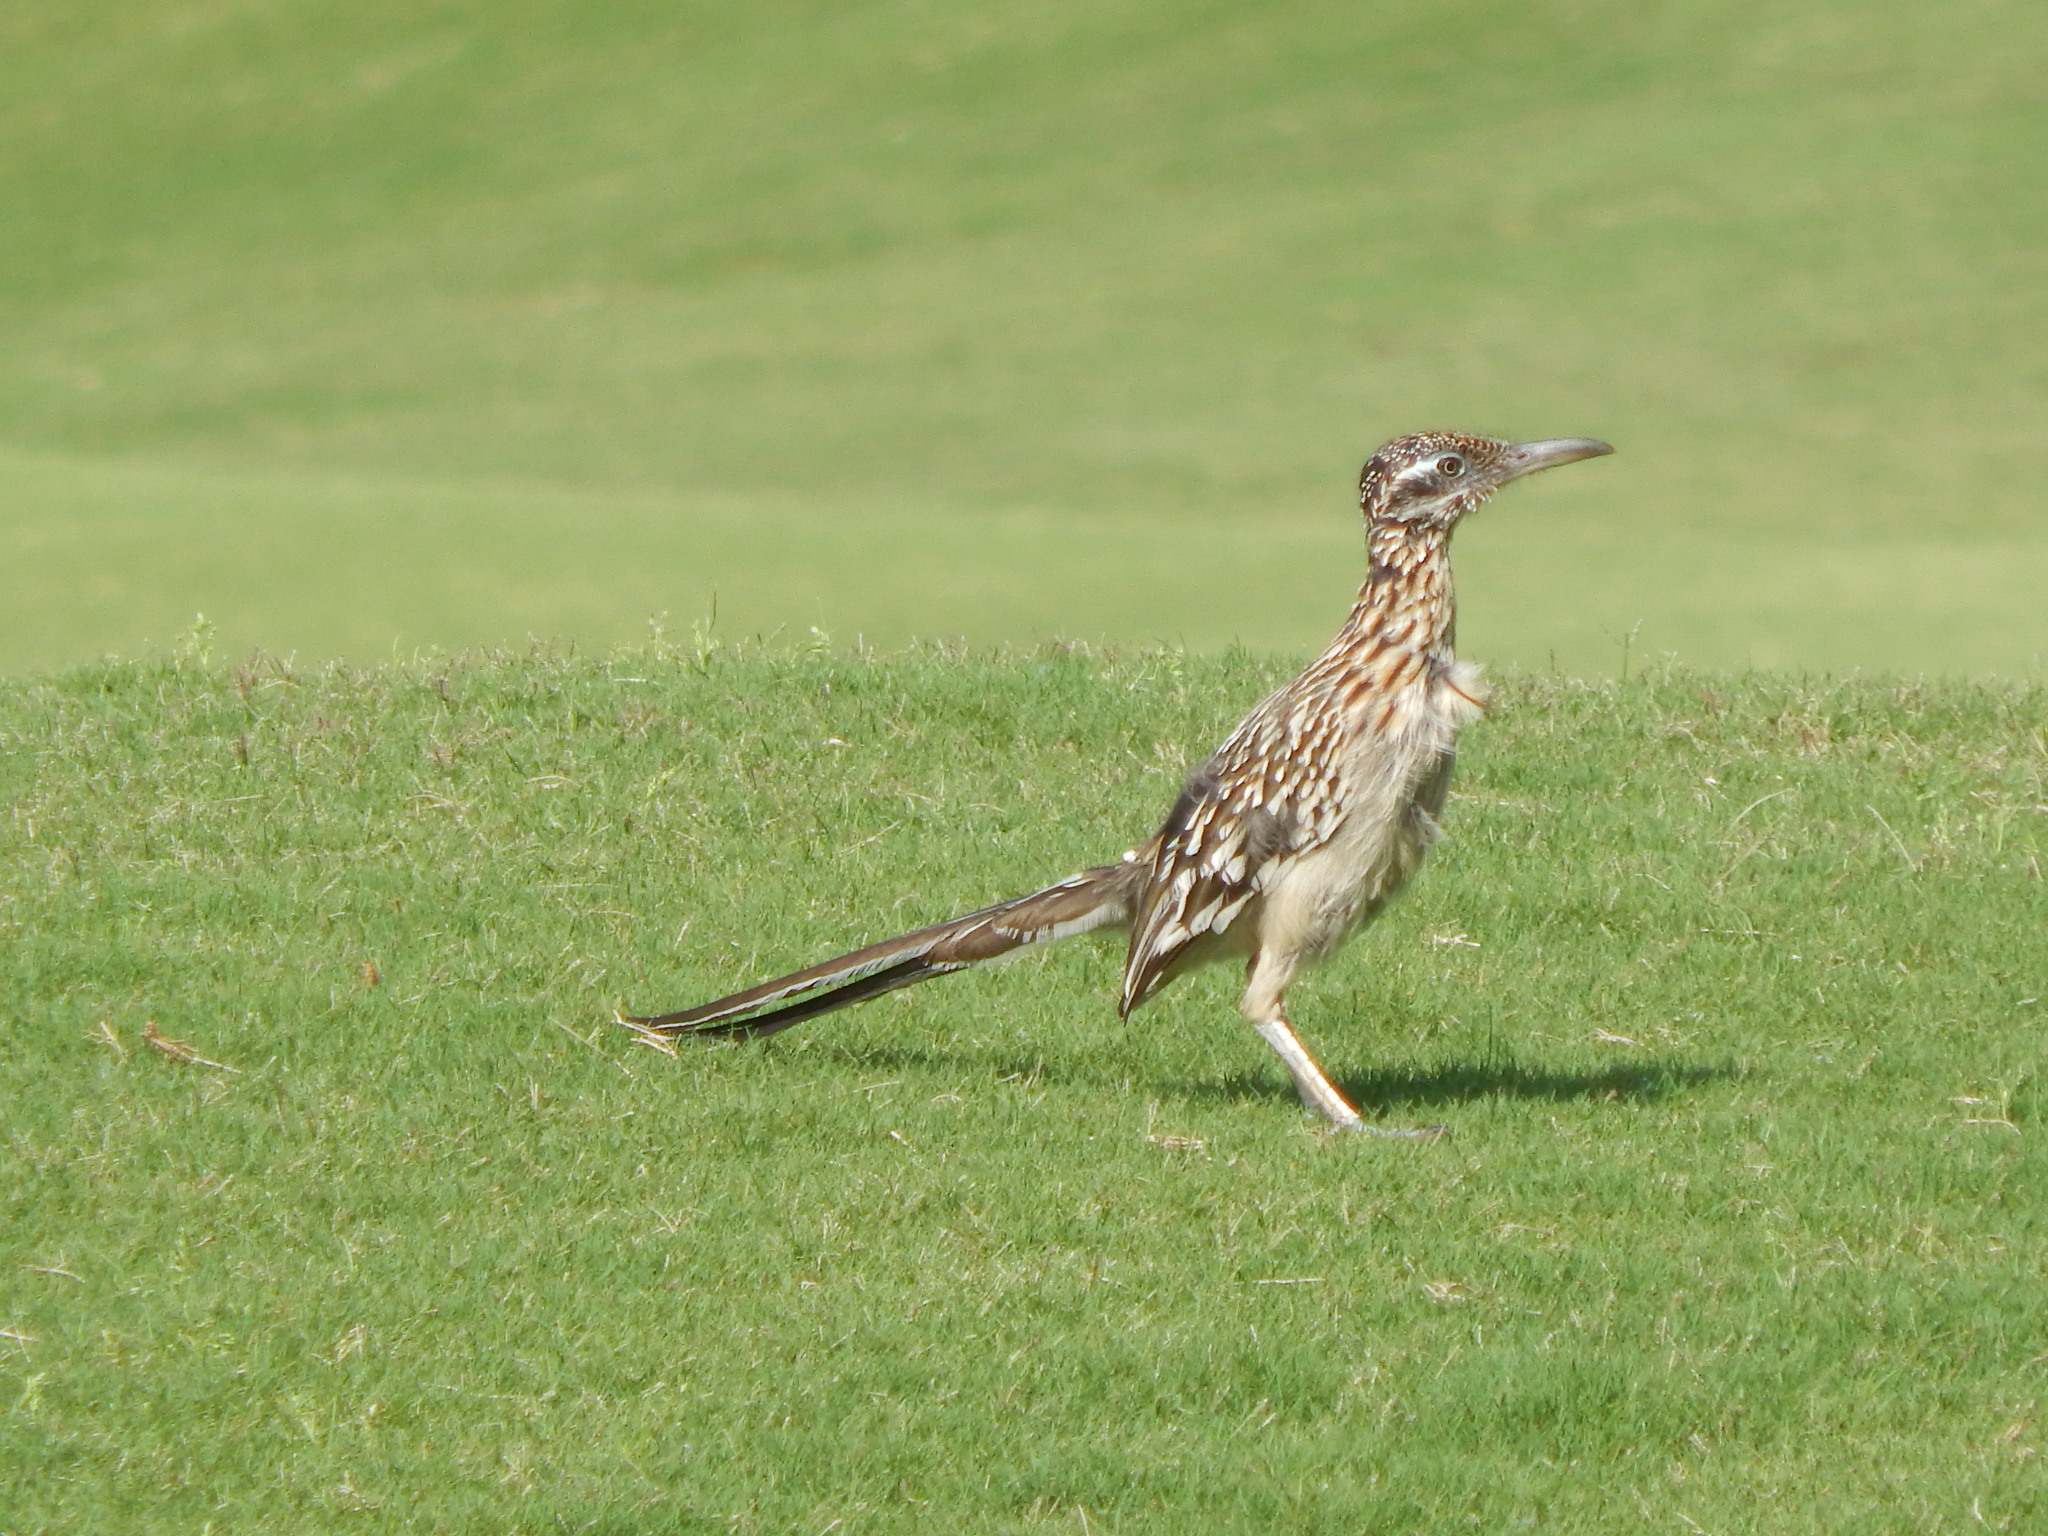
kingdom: Animalia
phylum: Chordata
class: Aves
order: Cuculiformes
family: Cuculidae
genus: Geococcyx
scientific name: Geococcyx californianus
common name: Greater roadrunner
